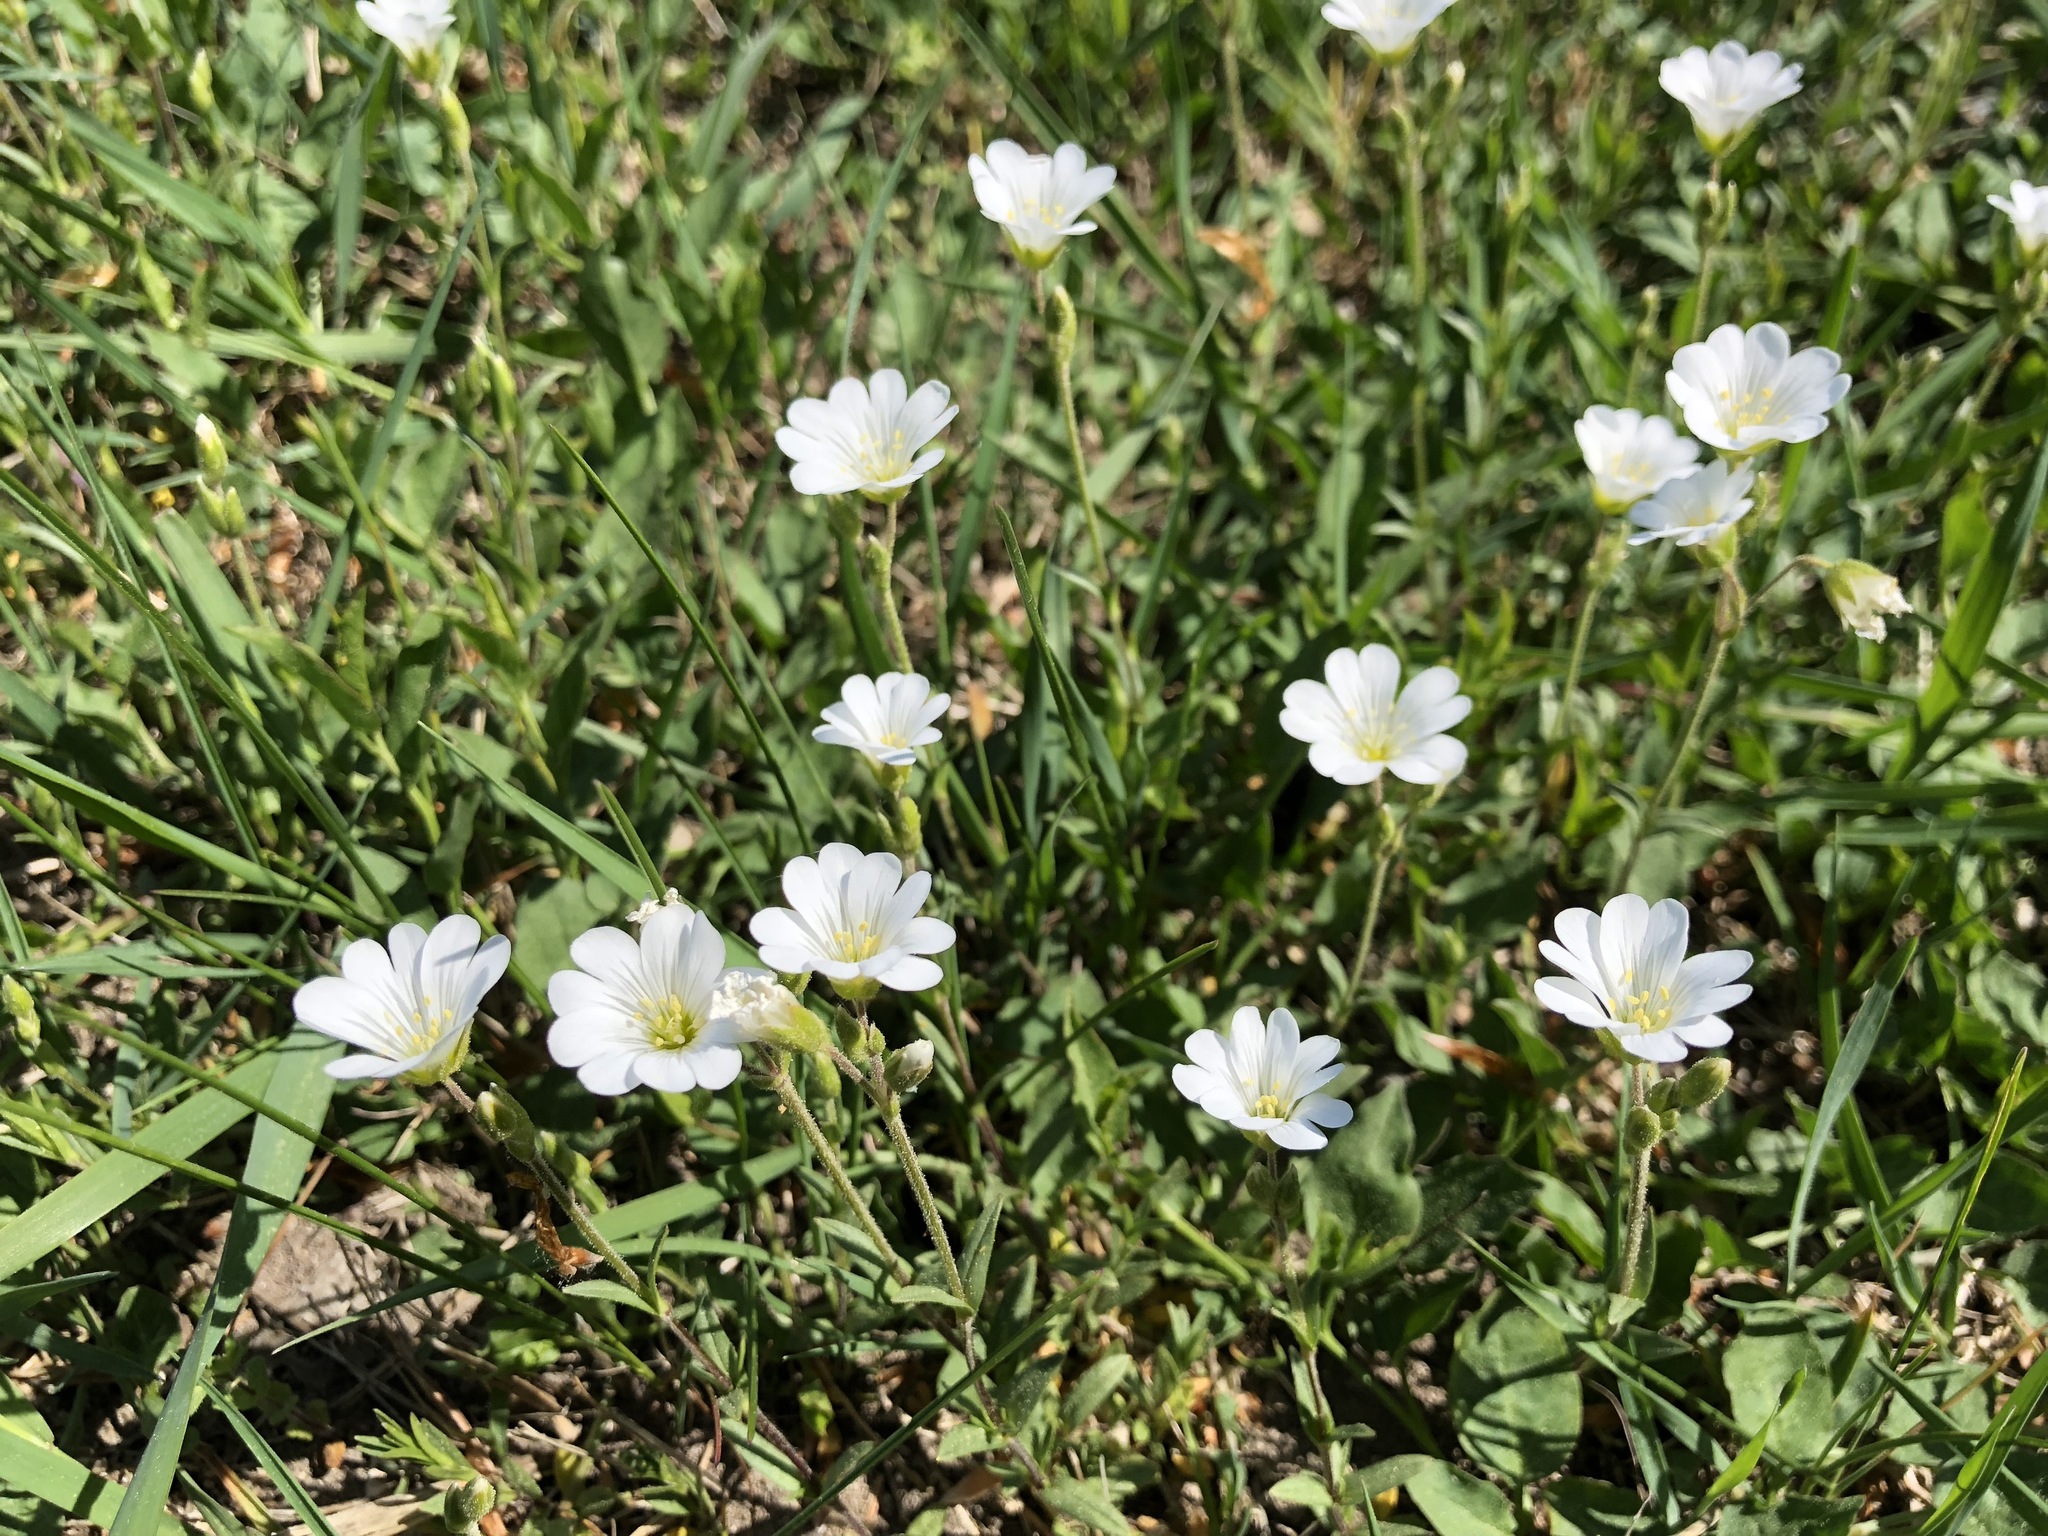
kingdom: Plantae
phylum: Tracheophyta
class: Magnoliopsida
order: Caryophyllales
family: Caryophyllaceae
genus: Cerastium
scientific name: Cerastium arvense
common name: Field mouse-ear
